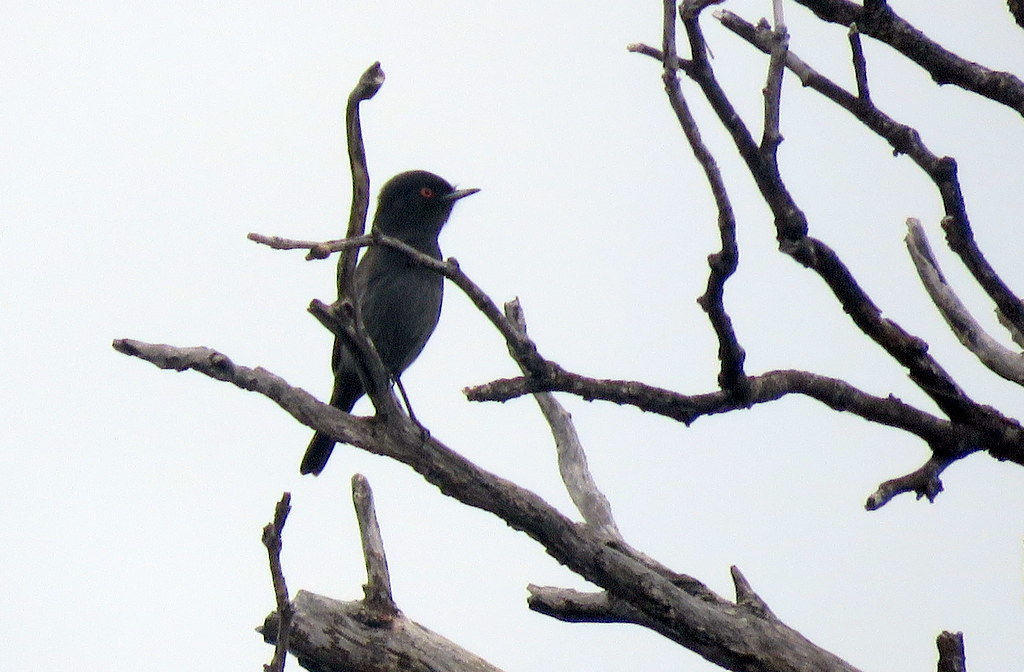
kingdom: Animalia
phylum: Chordata
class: Aves
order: Passeriformes
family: Tyrannidae
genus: Knipolegus
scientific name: Knipolegus striaticeps
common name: Cinereous tyrant
